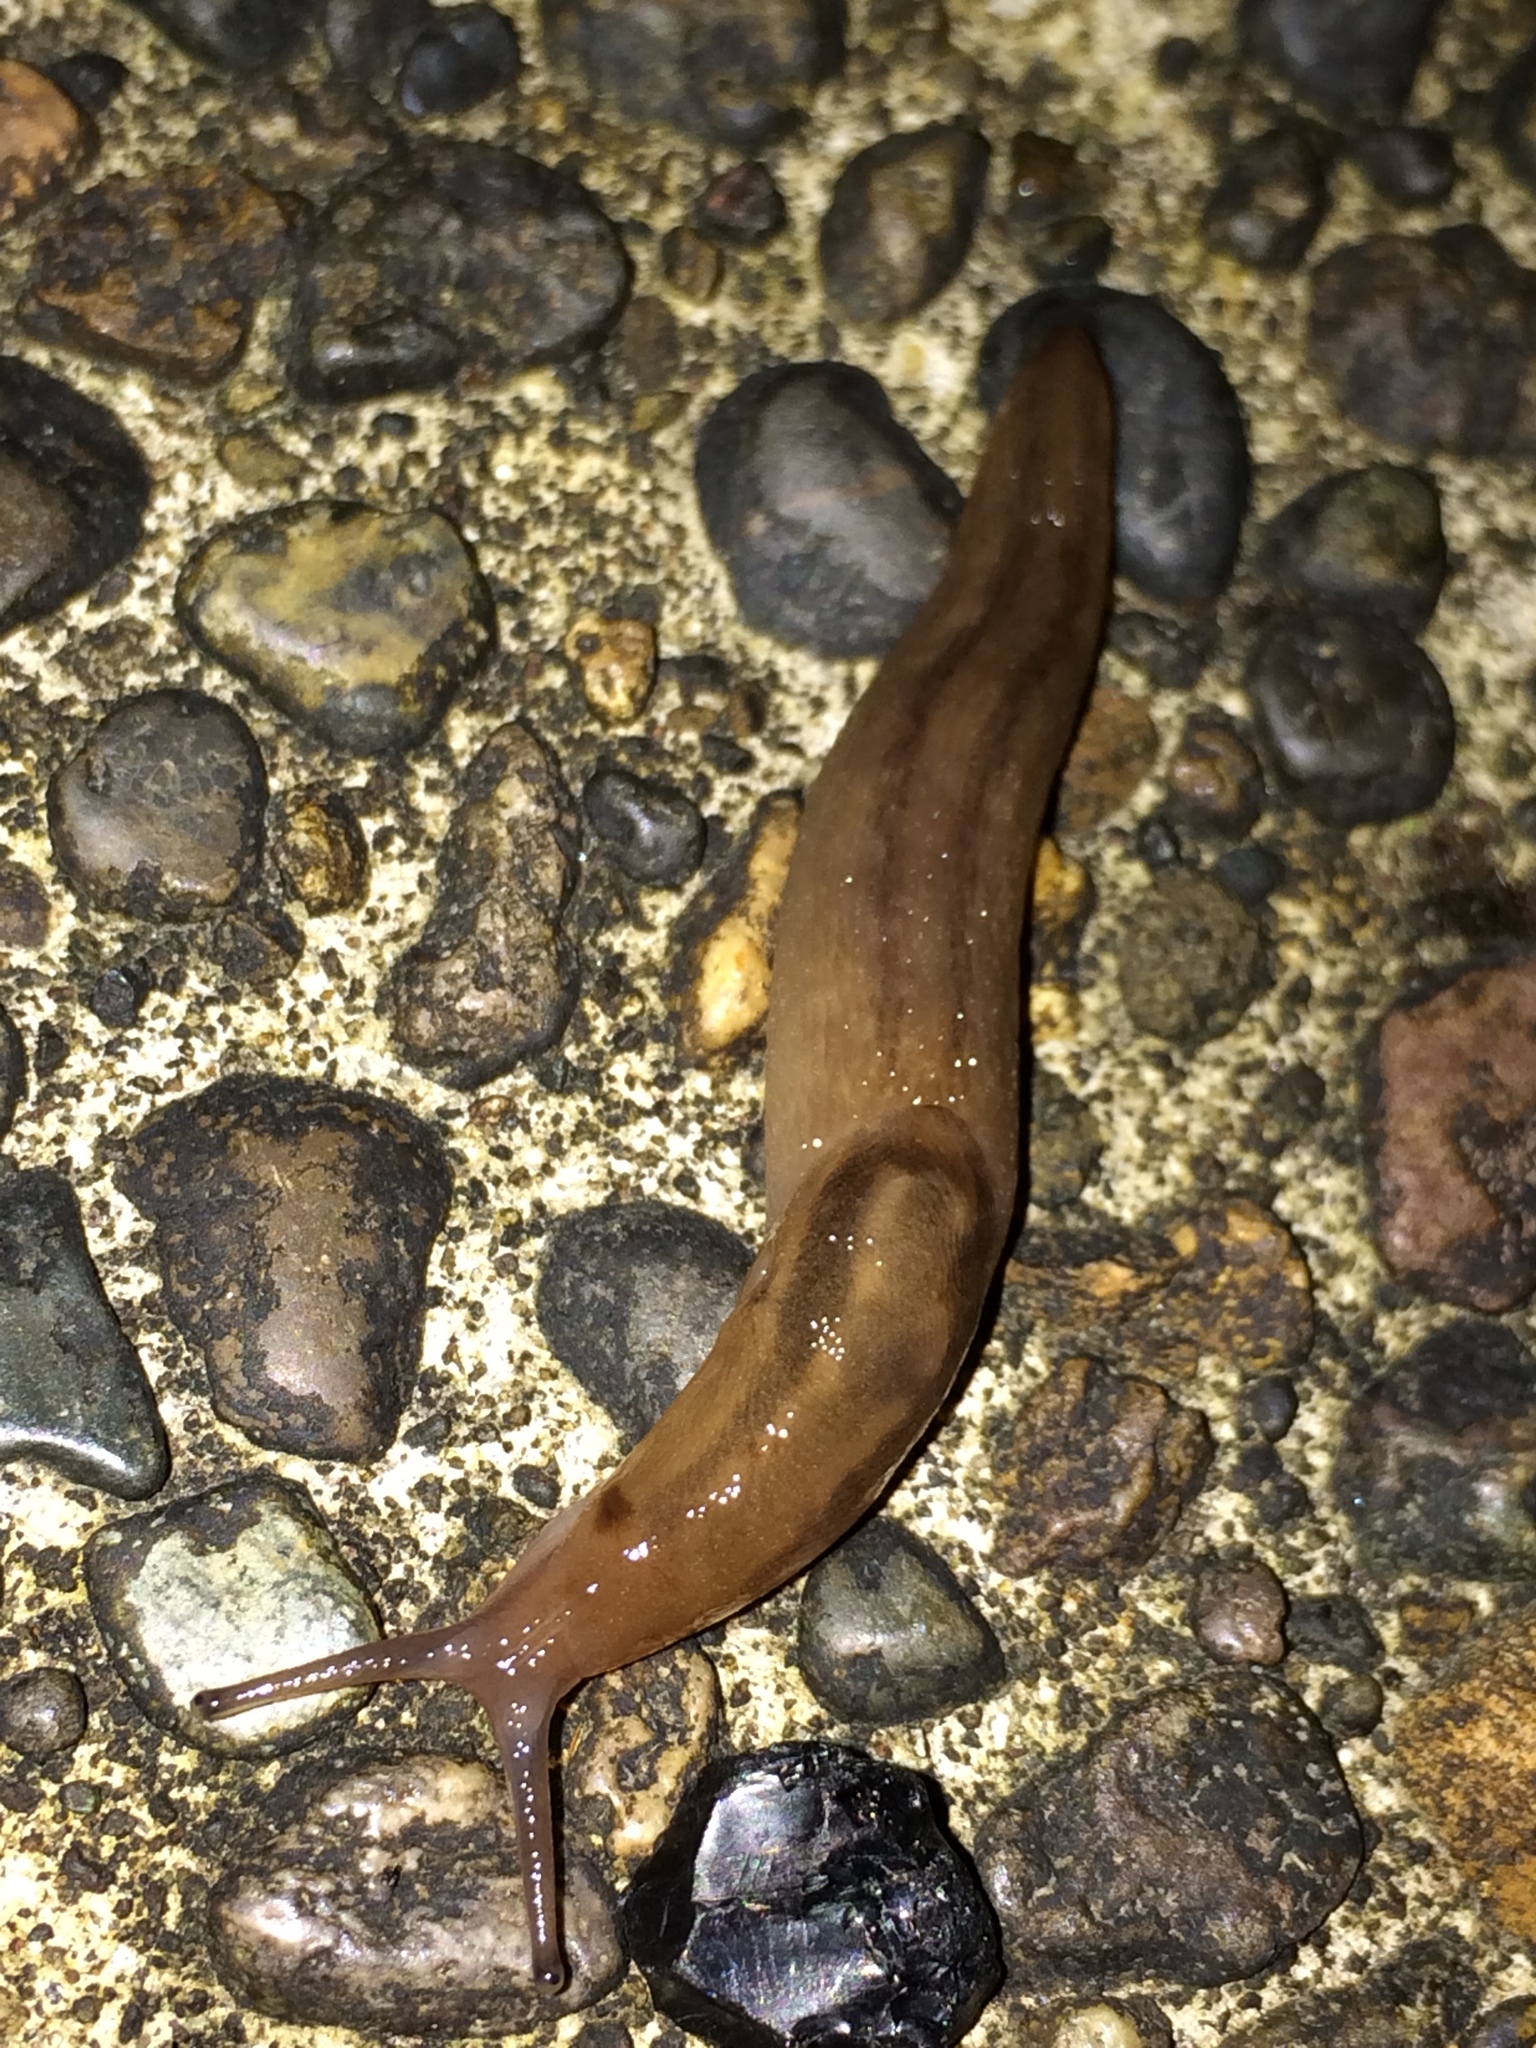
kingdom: Animalia
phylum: Mollusca
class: Gastropoda
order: Stylommatophora
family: Limacidae
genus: Ambigolimax
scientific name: Ambigolimax
